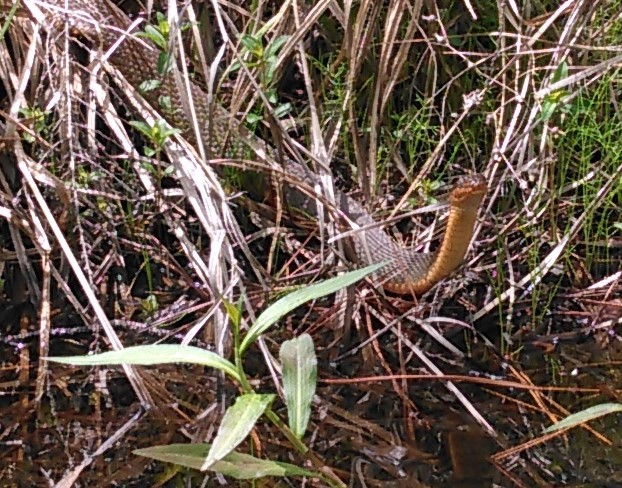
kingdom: Animalia
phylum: Chordata
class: Squamata
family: Colubridae
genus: Nerodia
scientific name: Nerodia erythrogaster
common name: Plainbelly water snake
